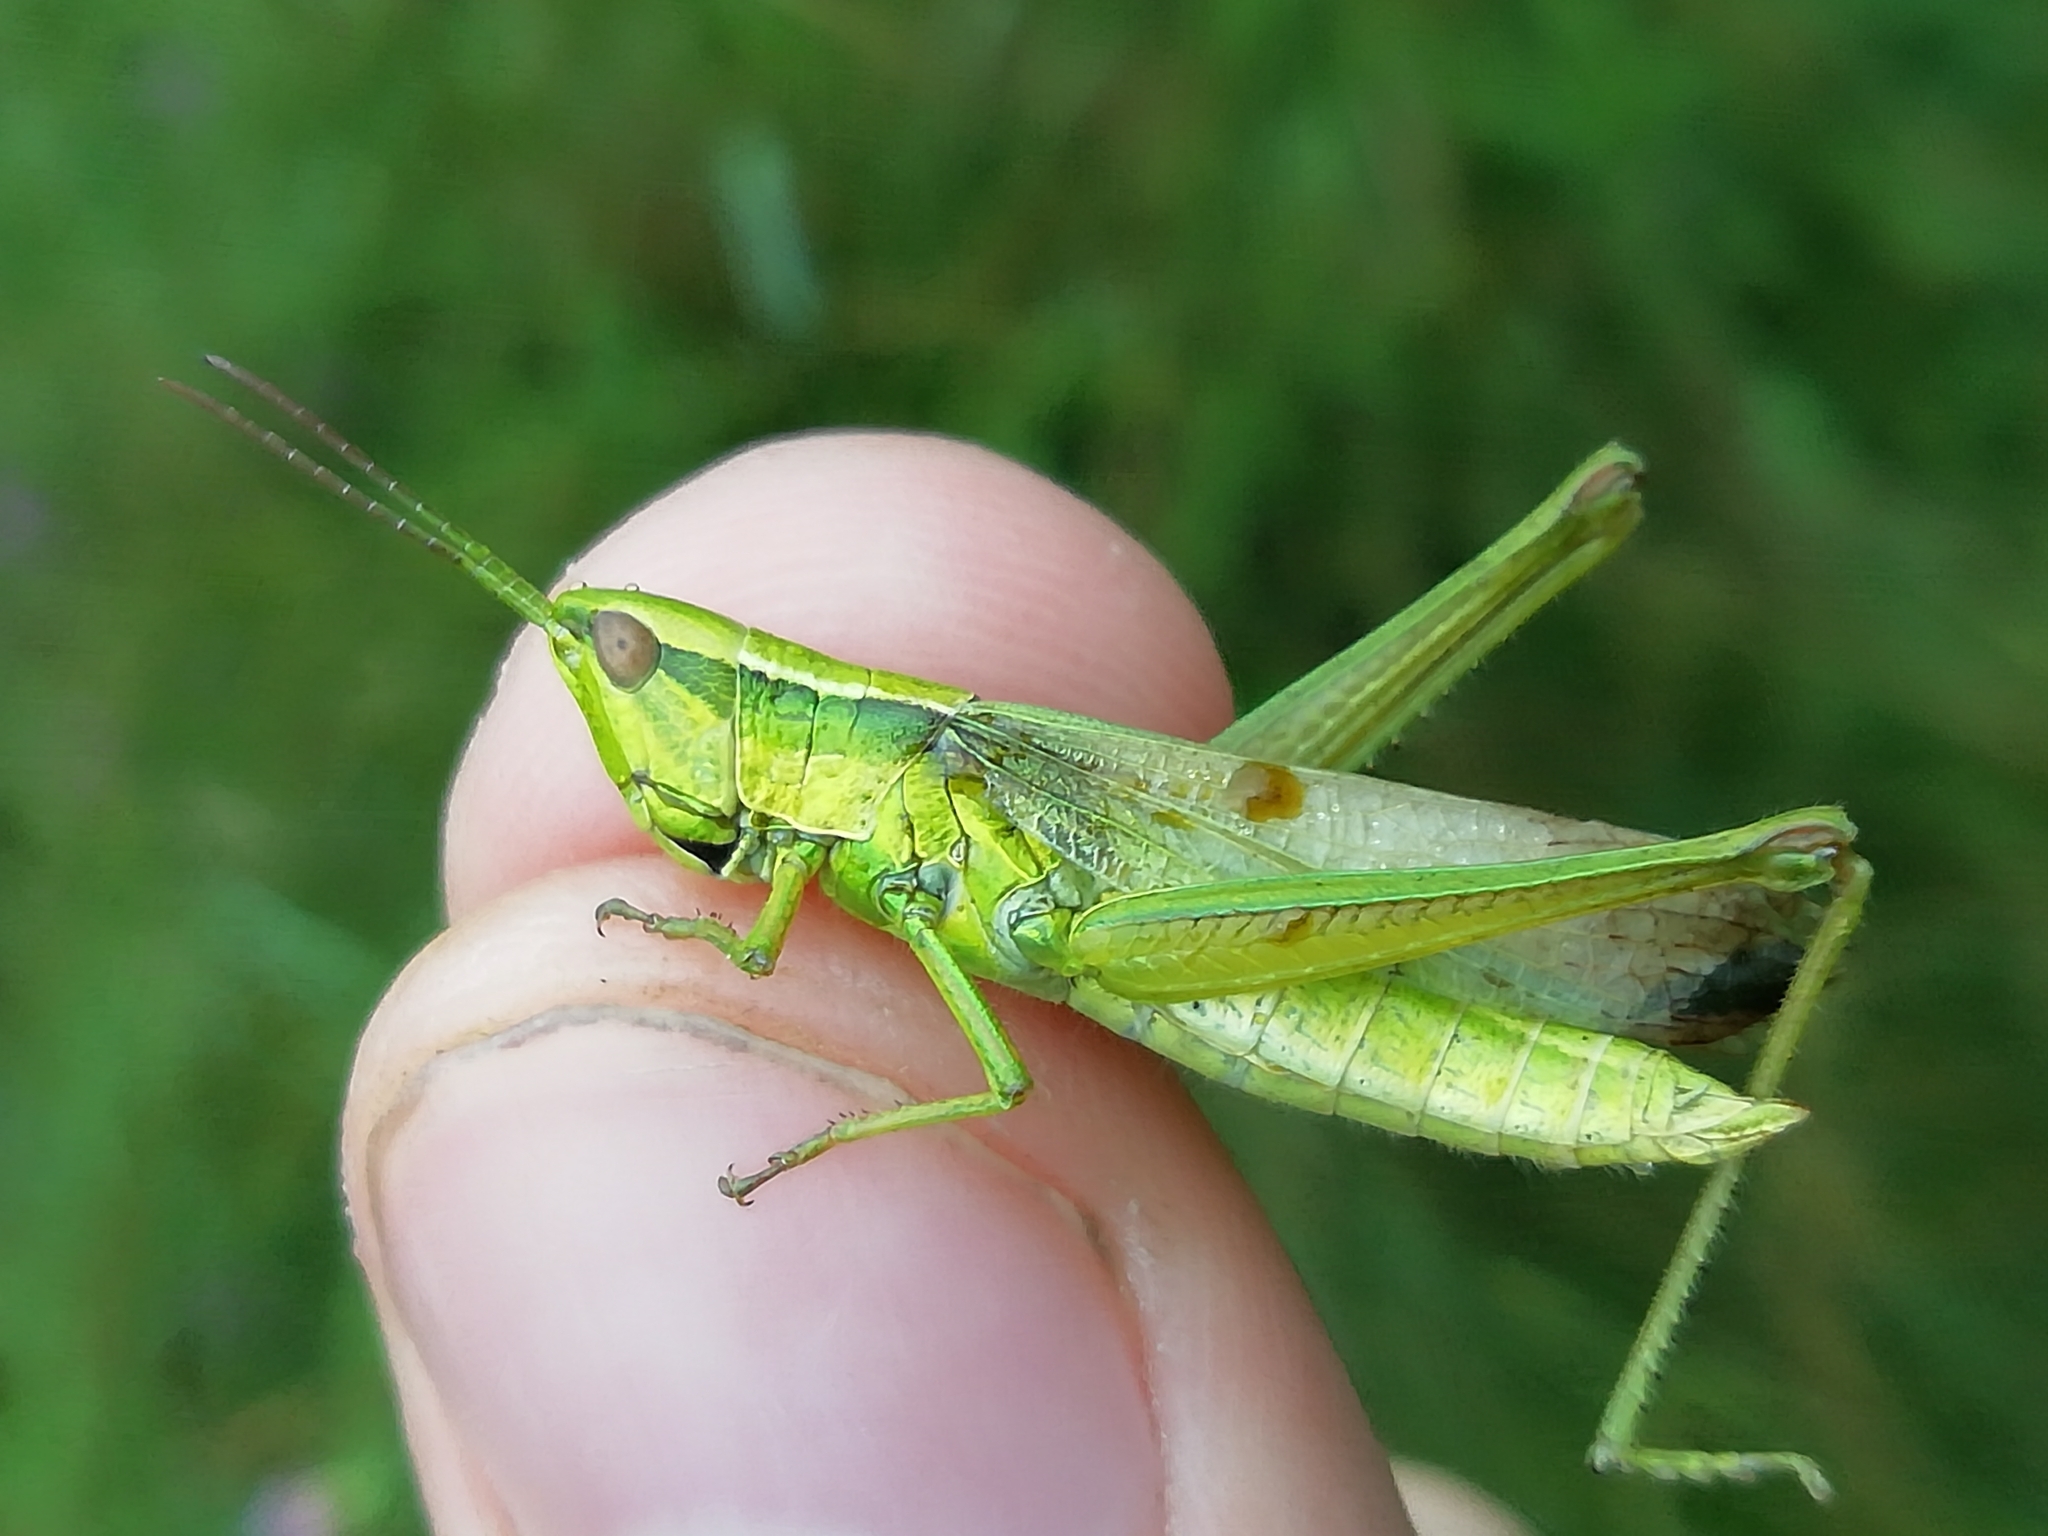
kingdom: Animalia
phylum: Arthropoda
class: Insecta
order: Orthoptera
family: Acrididae
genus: Euthystira
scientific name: Euthystira brachyptera
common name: Small gold grasshopper
